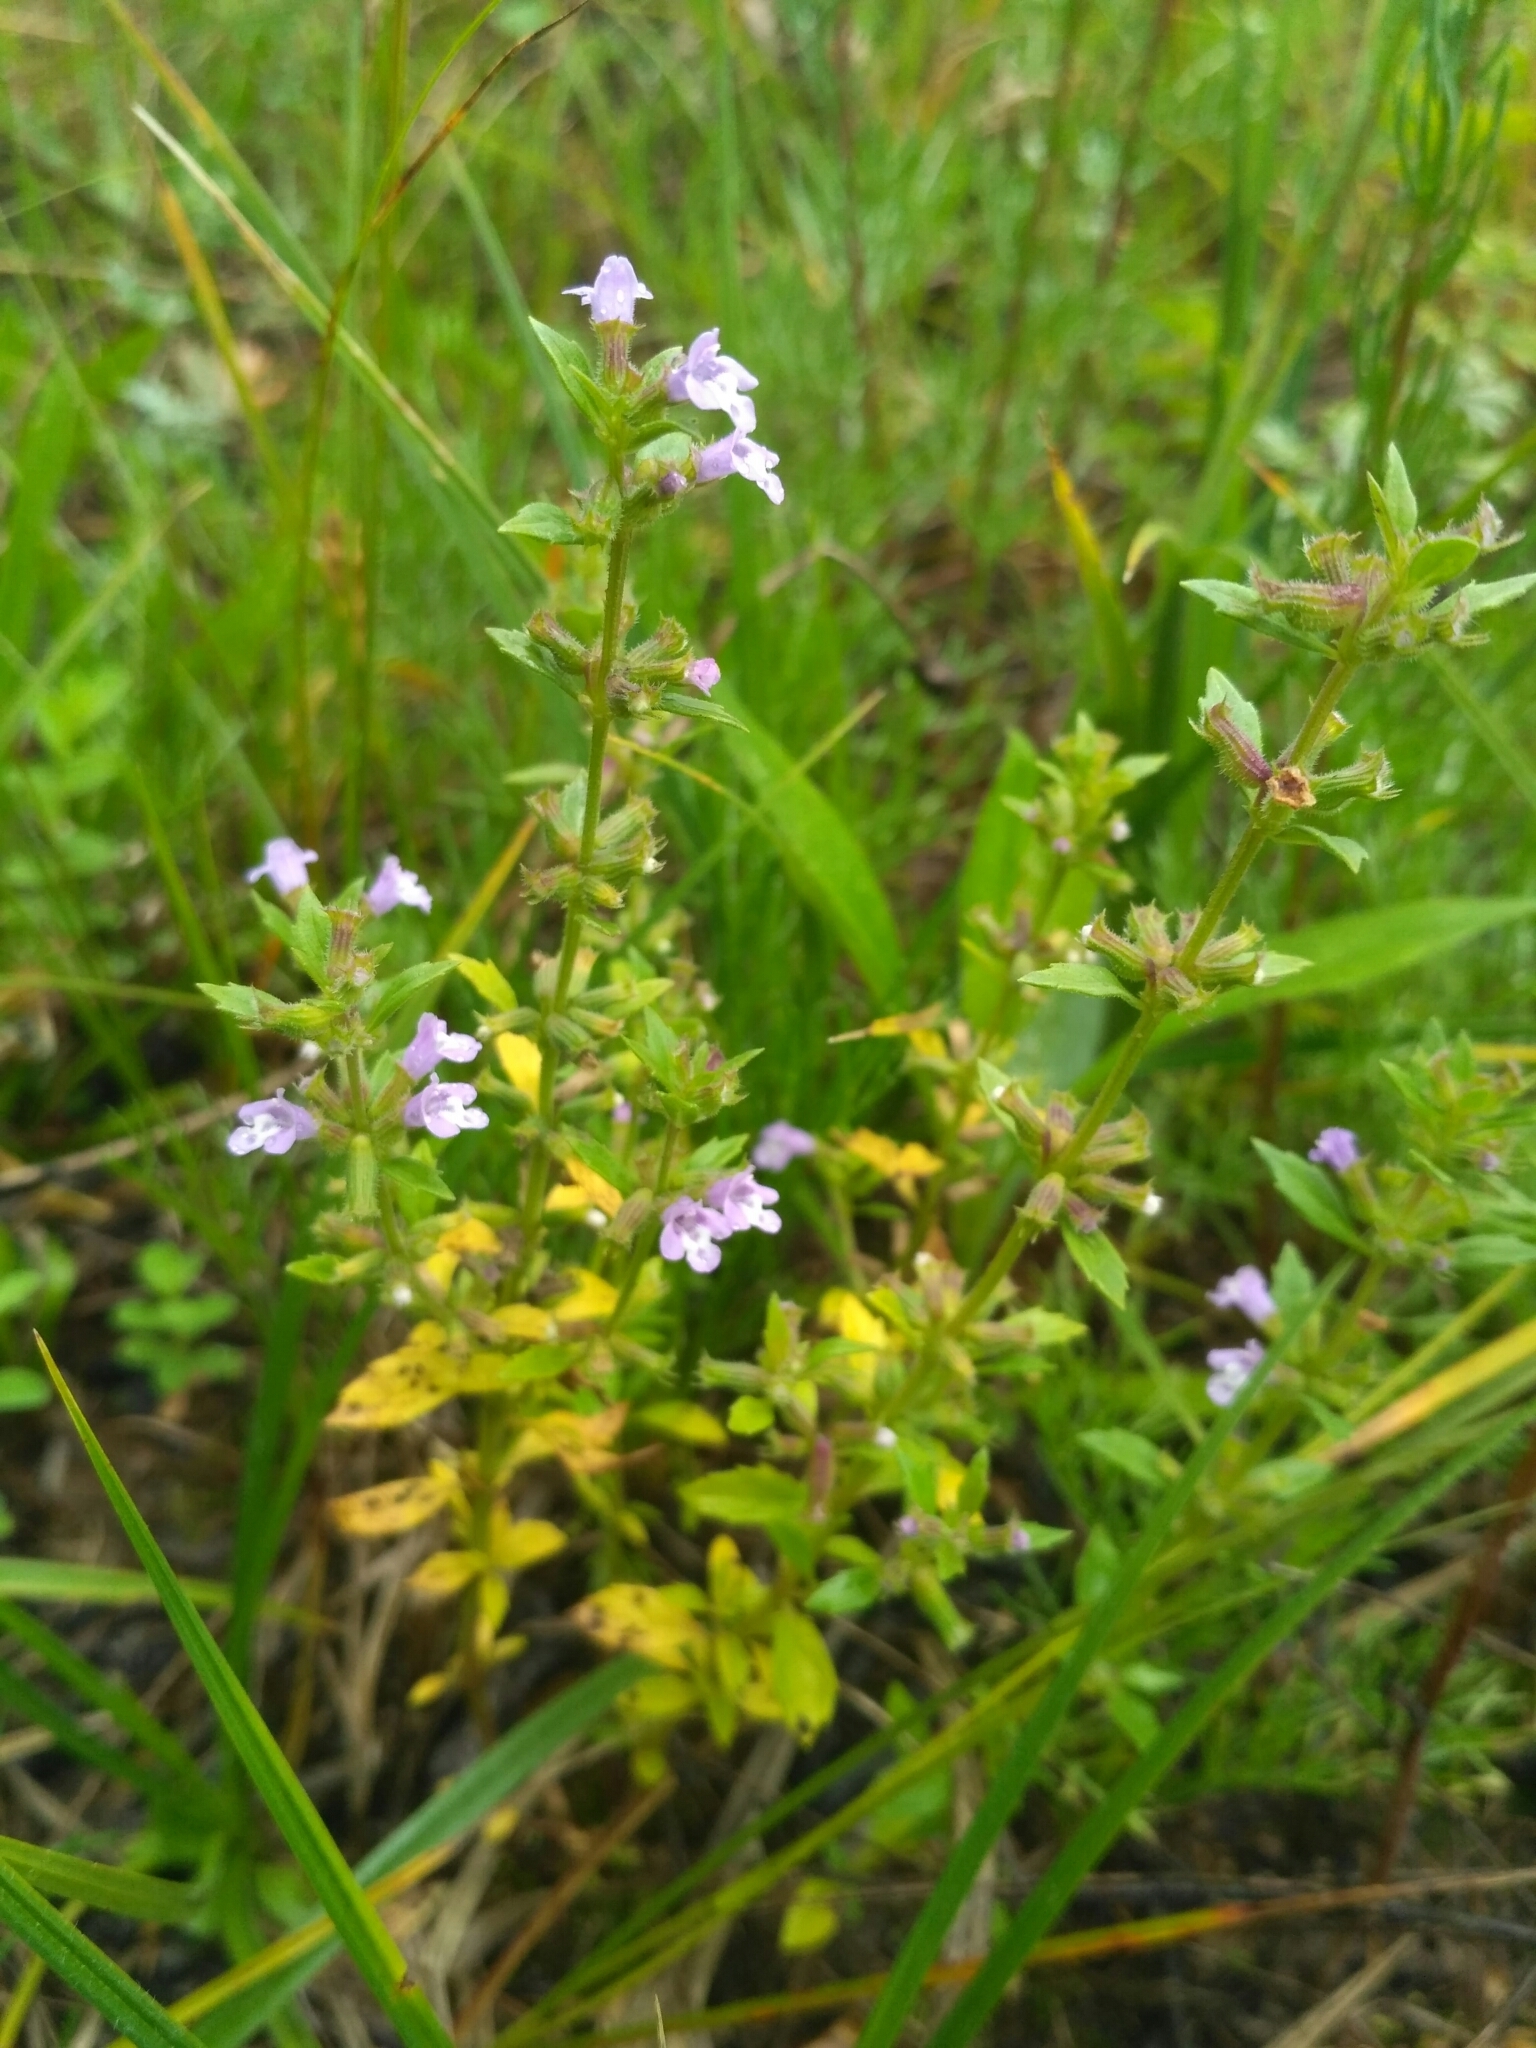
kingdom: Plantae
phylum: Tracheophyta
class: Magnoliopsida
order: Lamiales
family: Lamiaceae
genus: Clinopodium
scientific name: Clinopodium acinos
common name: Basil thyme
